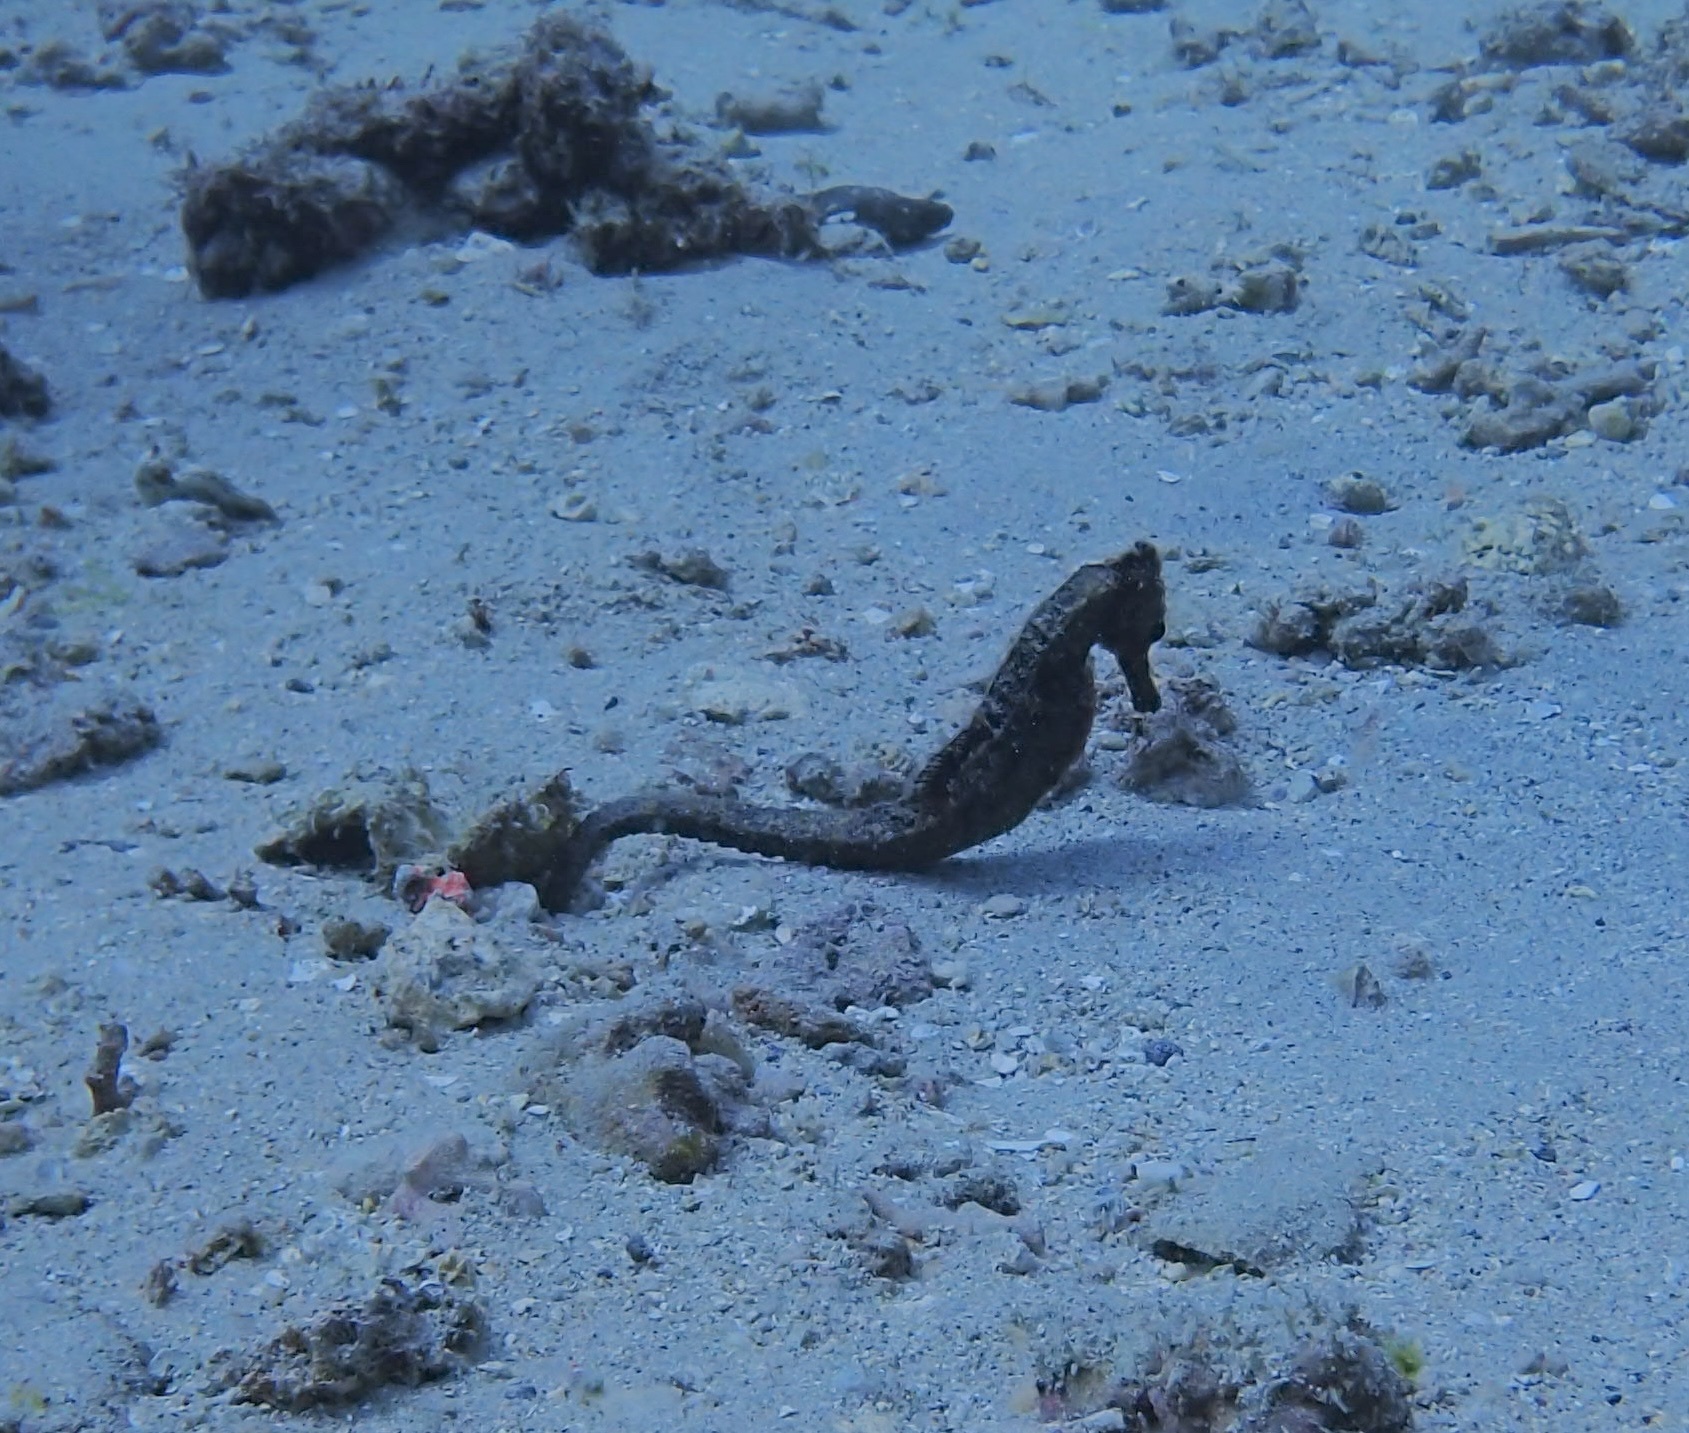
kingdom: Animalia
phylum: Chordata
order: Syngnathiformes
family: Syngnathidae
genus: Hippocampus
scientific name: Hippocampus kuda
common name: Spotted seahorse
